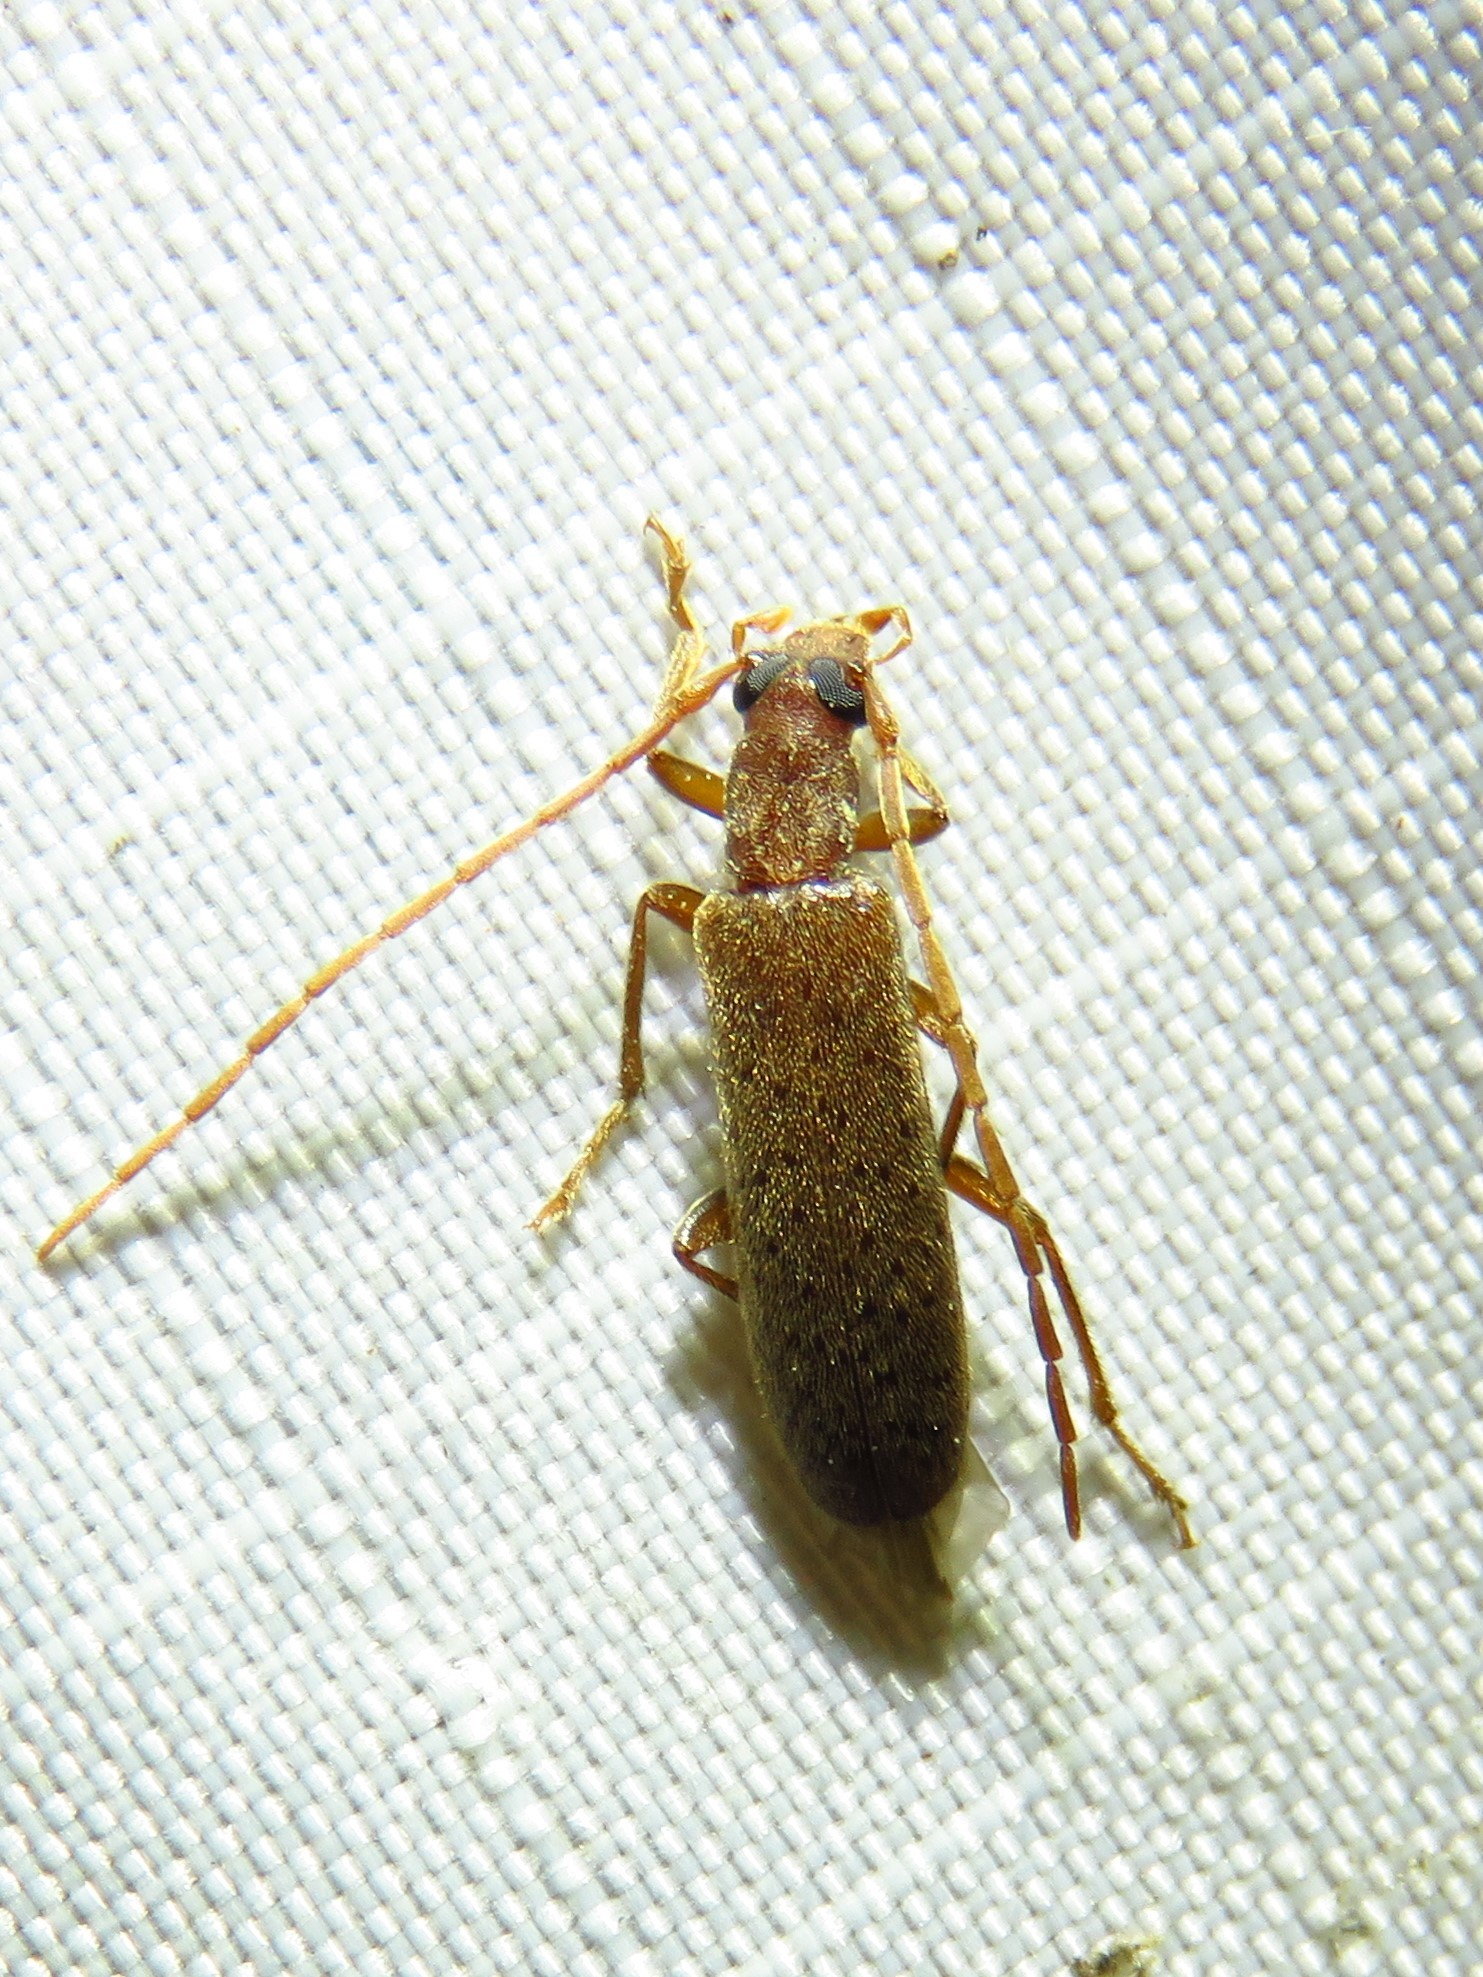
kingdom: Animalia
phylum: Arthropoda
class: Insecta
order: Coleoptera
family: Oedemeridae
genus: Sparedrus
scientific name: Sparedrus aspersus
